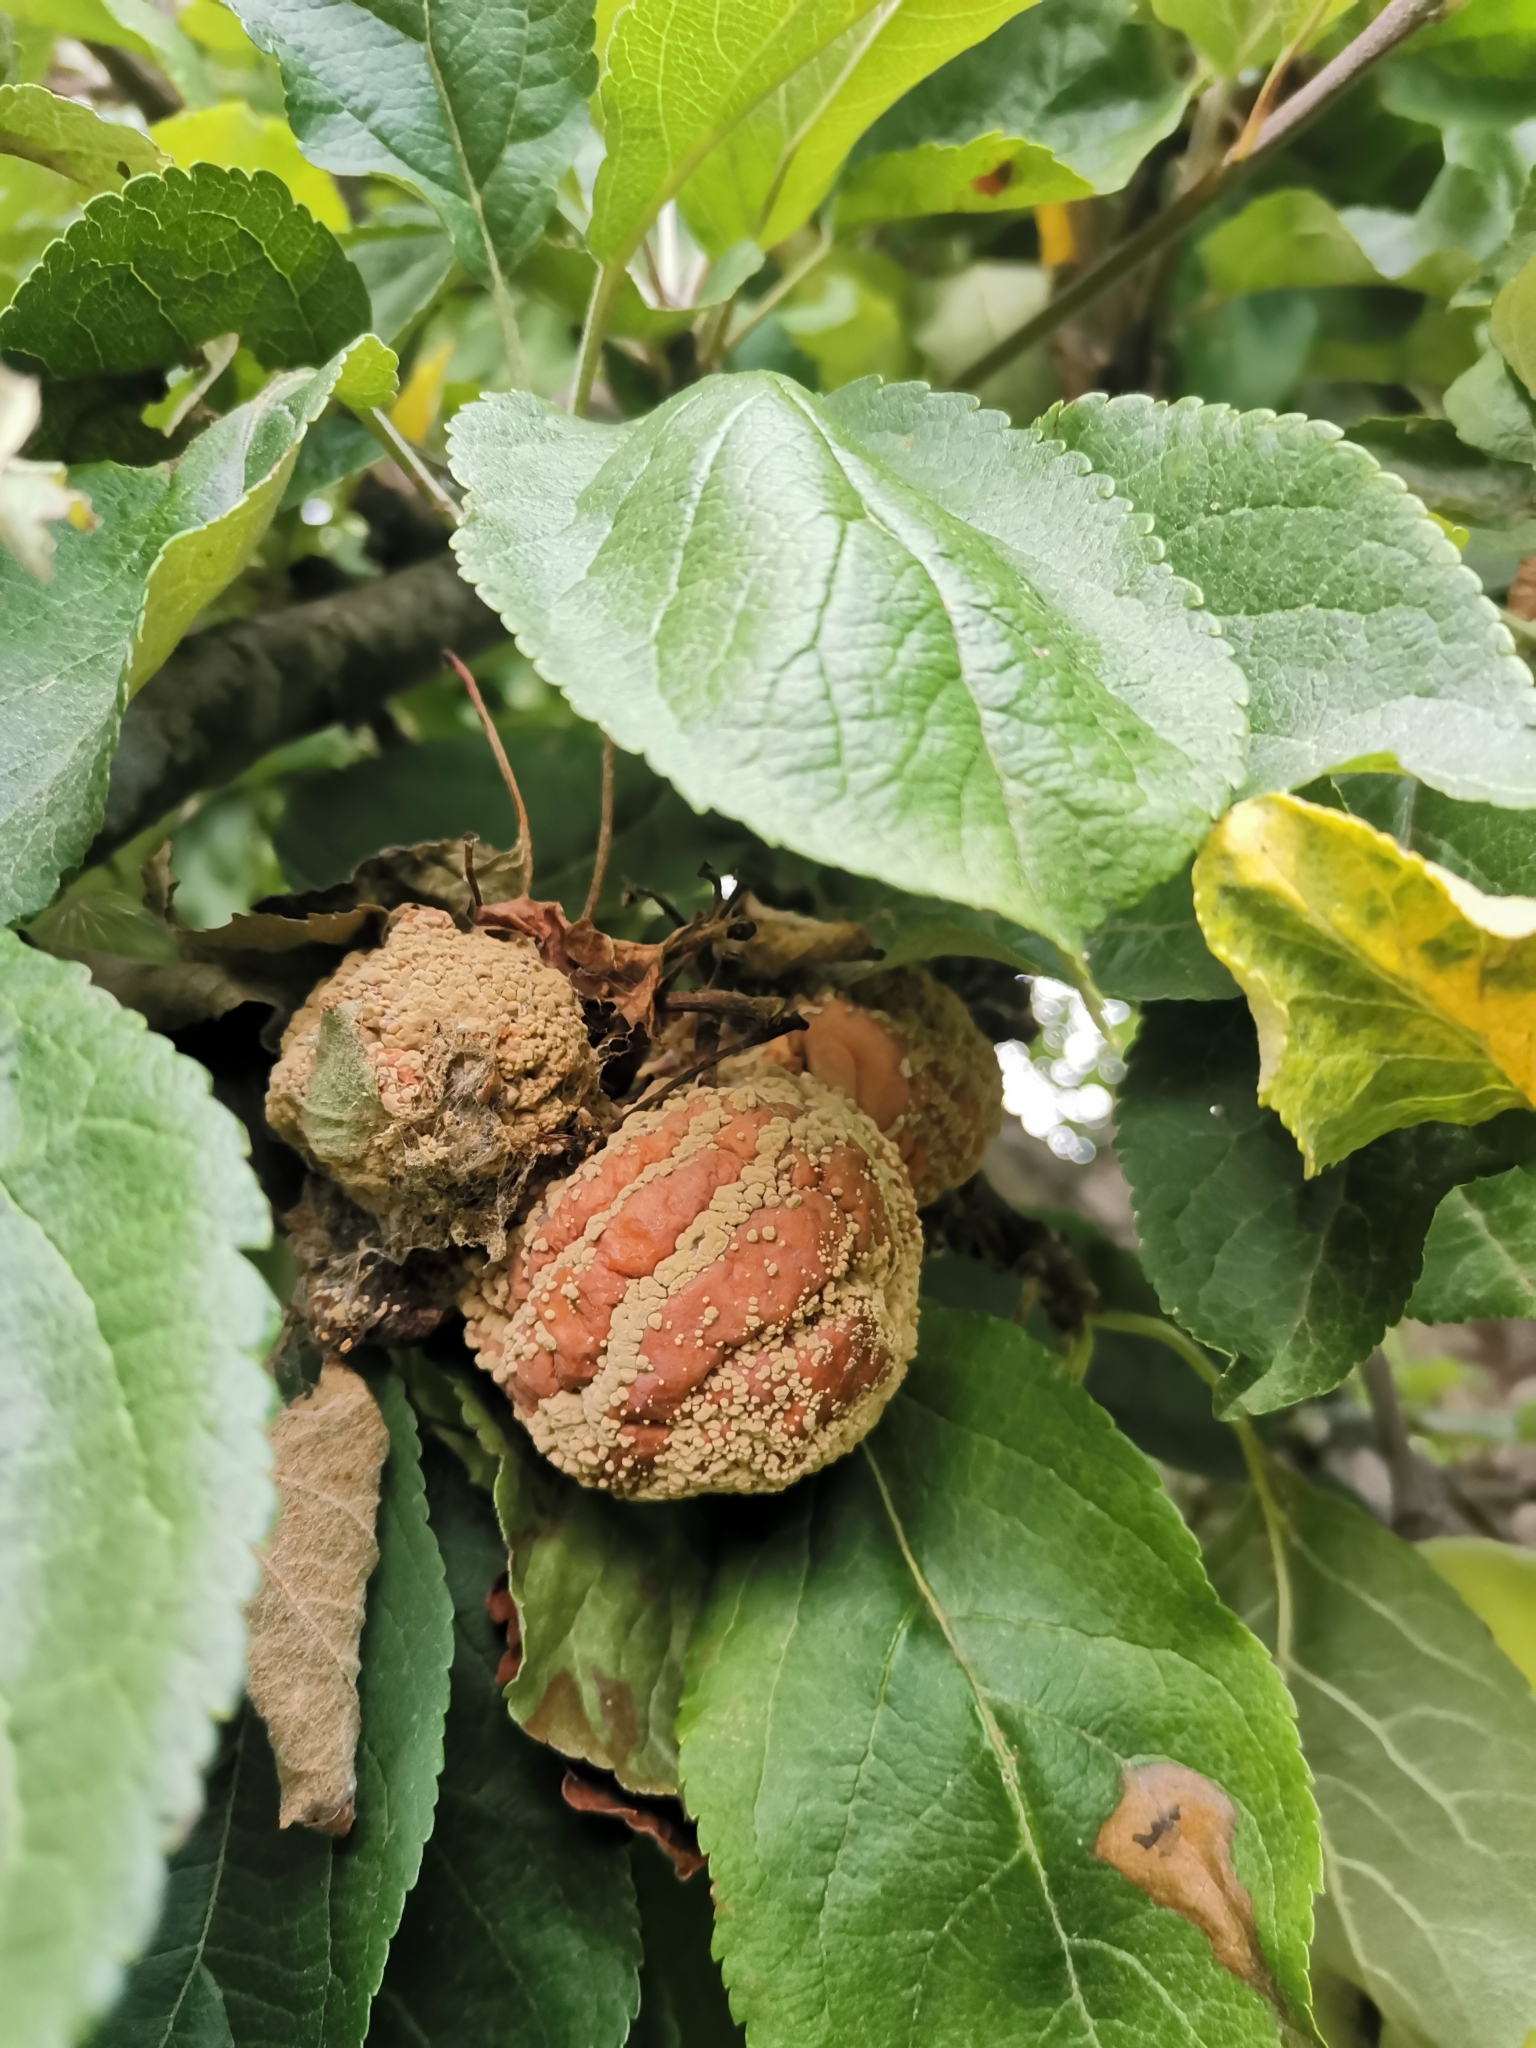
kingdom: Fungi
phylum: Ascomycota
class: Leotiomycetes
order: Helotiales
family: Sclerotiniaceae
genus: Monilinia
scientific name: Monilinia fructigena
